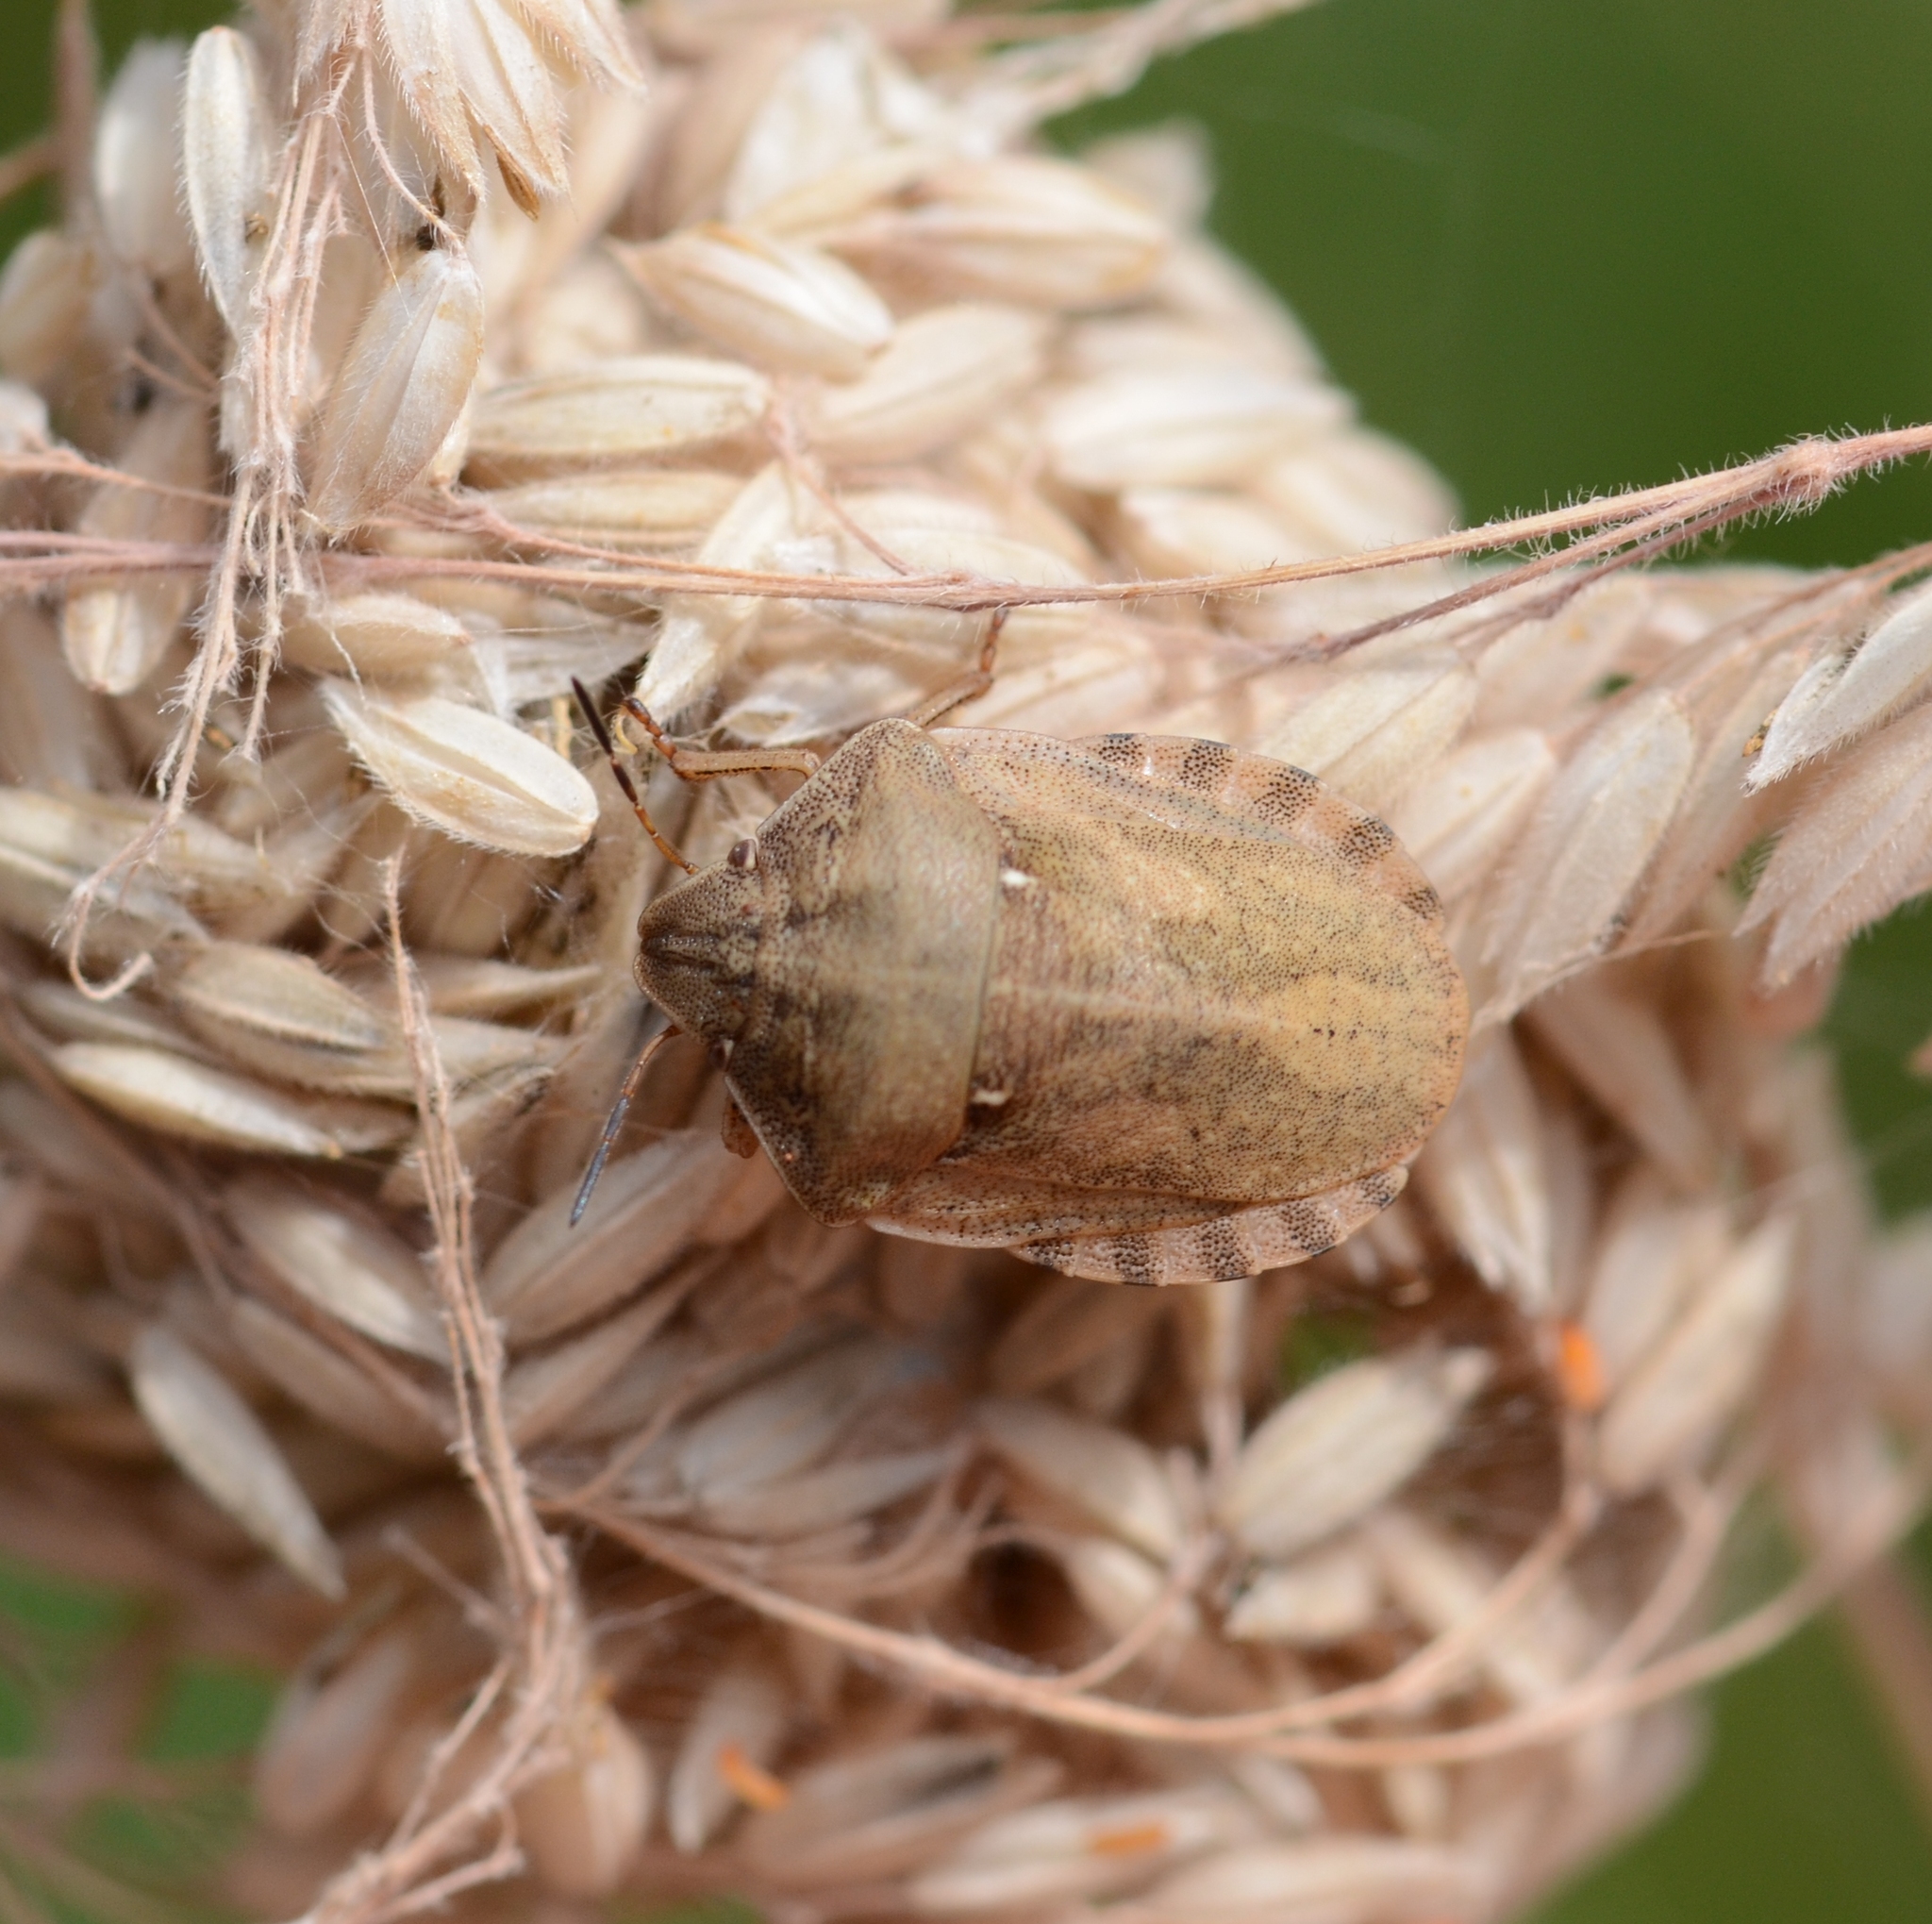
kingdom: Animalia
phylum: Arthropoda
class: Insecta
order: Hemiptera
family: Scutelleridae
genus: Eurygaster
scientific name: Eurygaster testudinaria
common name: Tortoise bug
